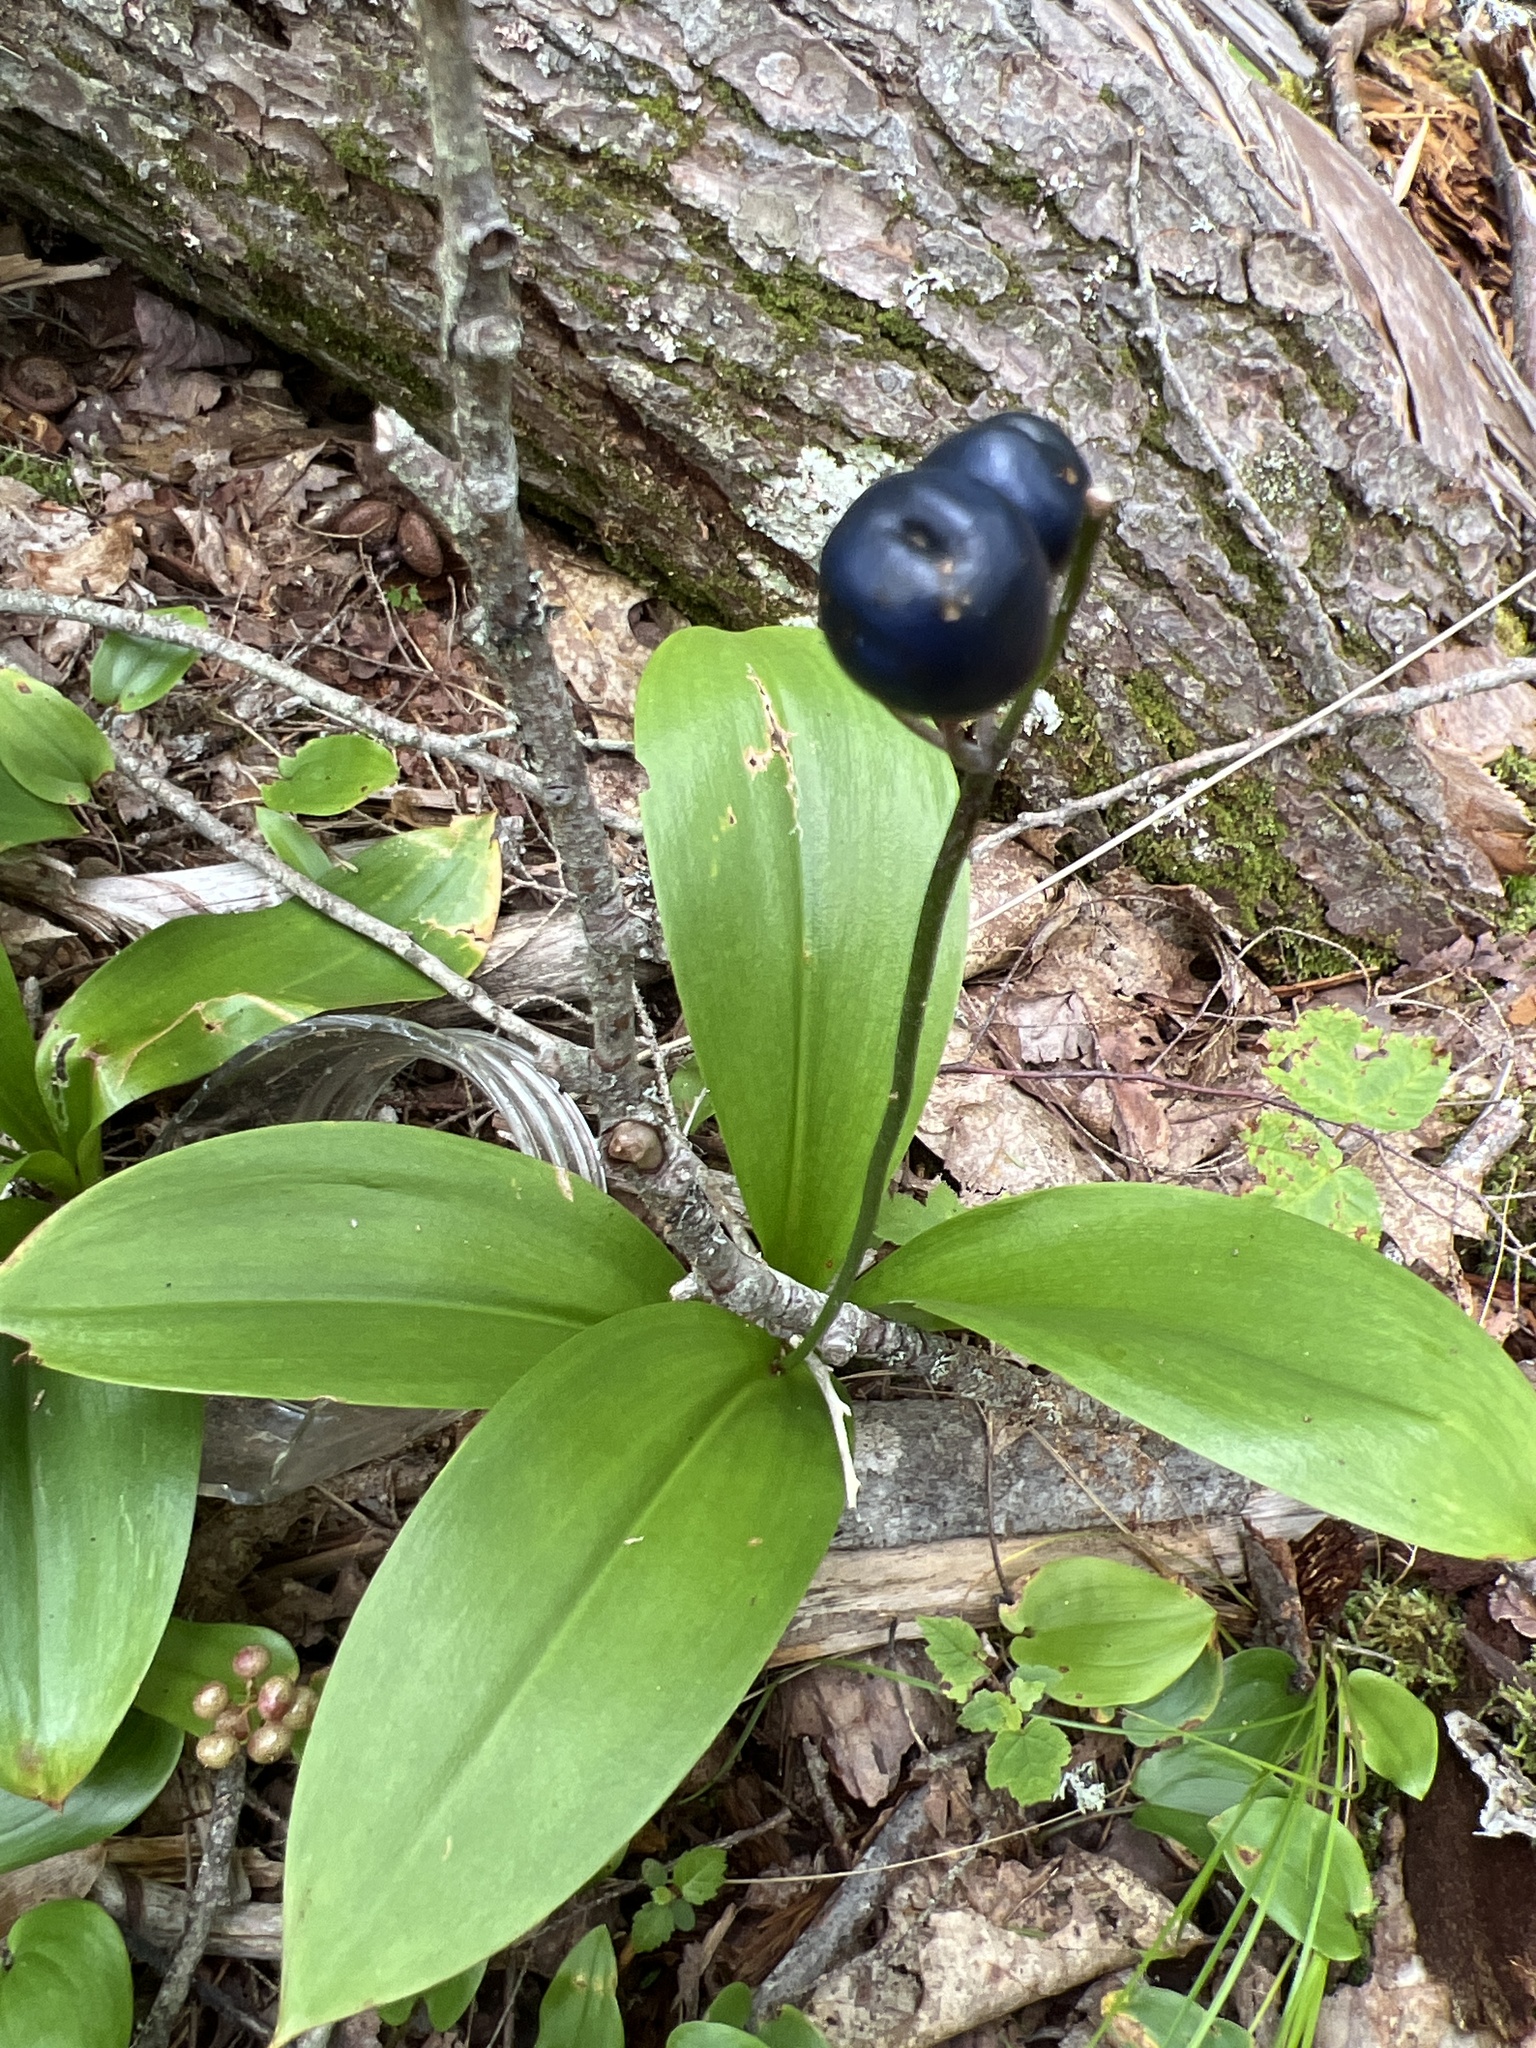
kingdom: Plantae
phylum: Tracheophyta
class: Liliopsida
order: Liliales
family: Liliaceae
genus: Clintonia
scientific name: Clintonia borealis
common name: Yellow clintonia
